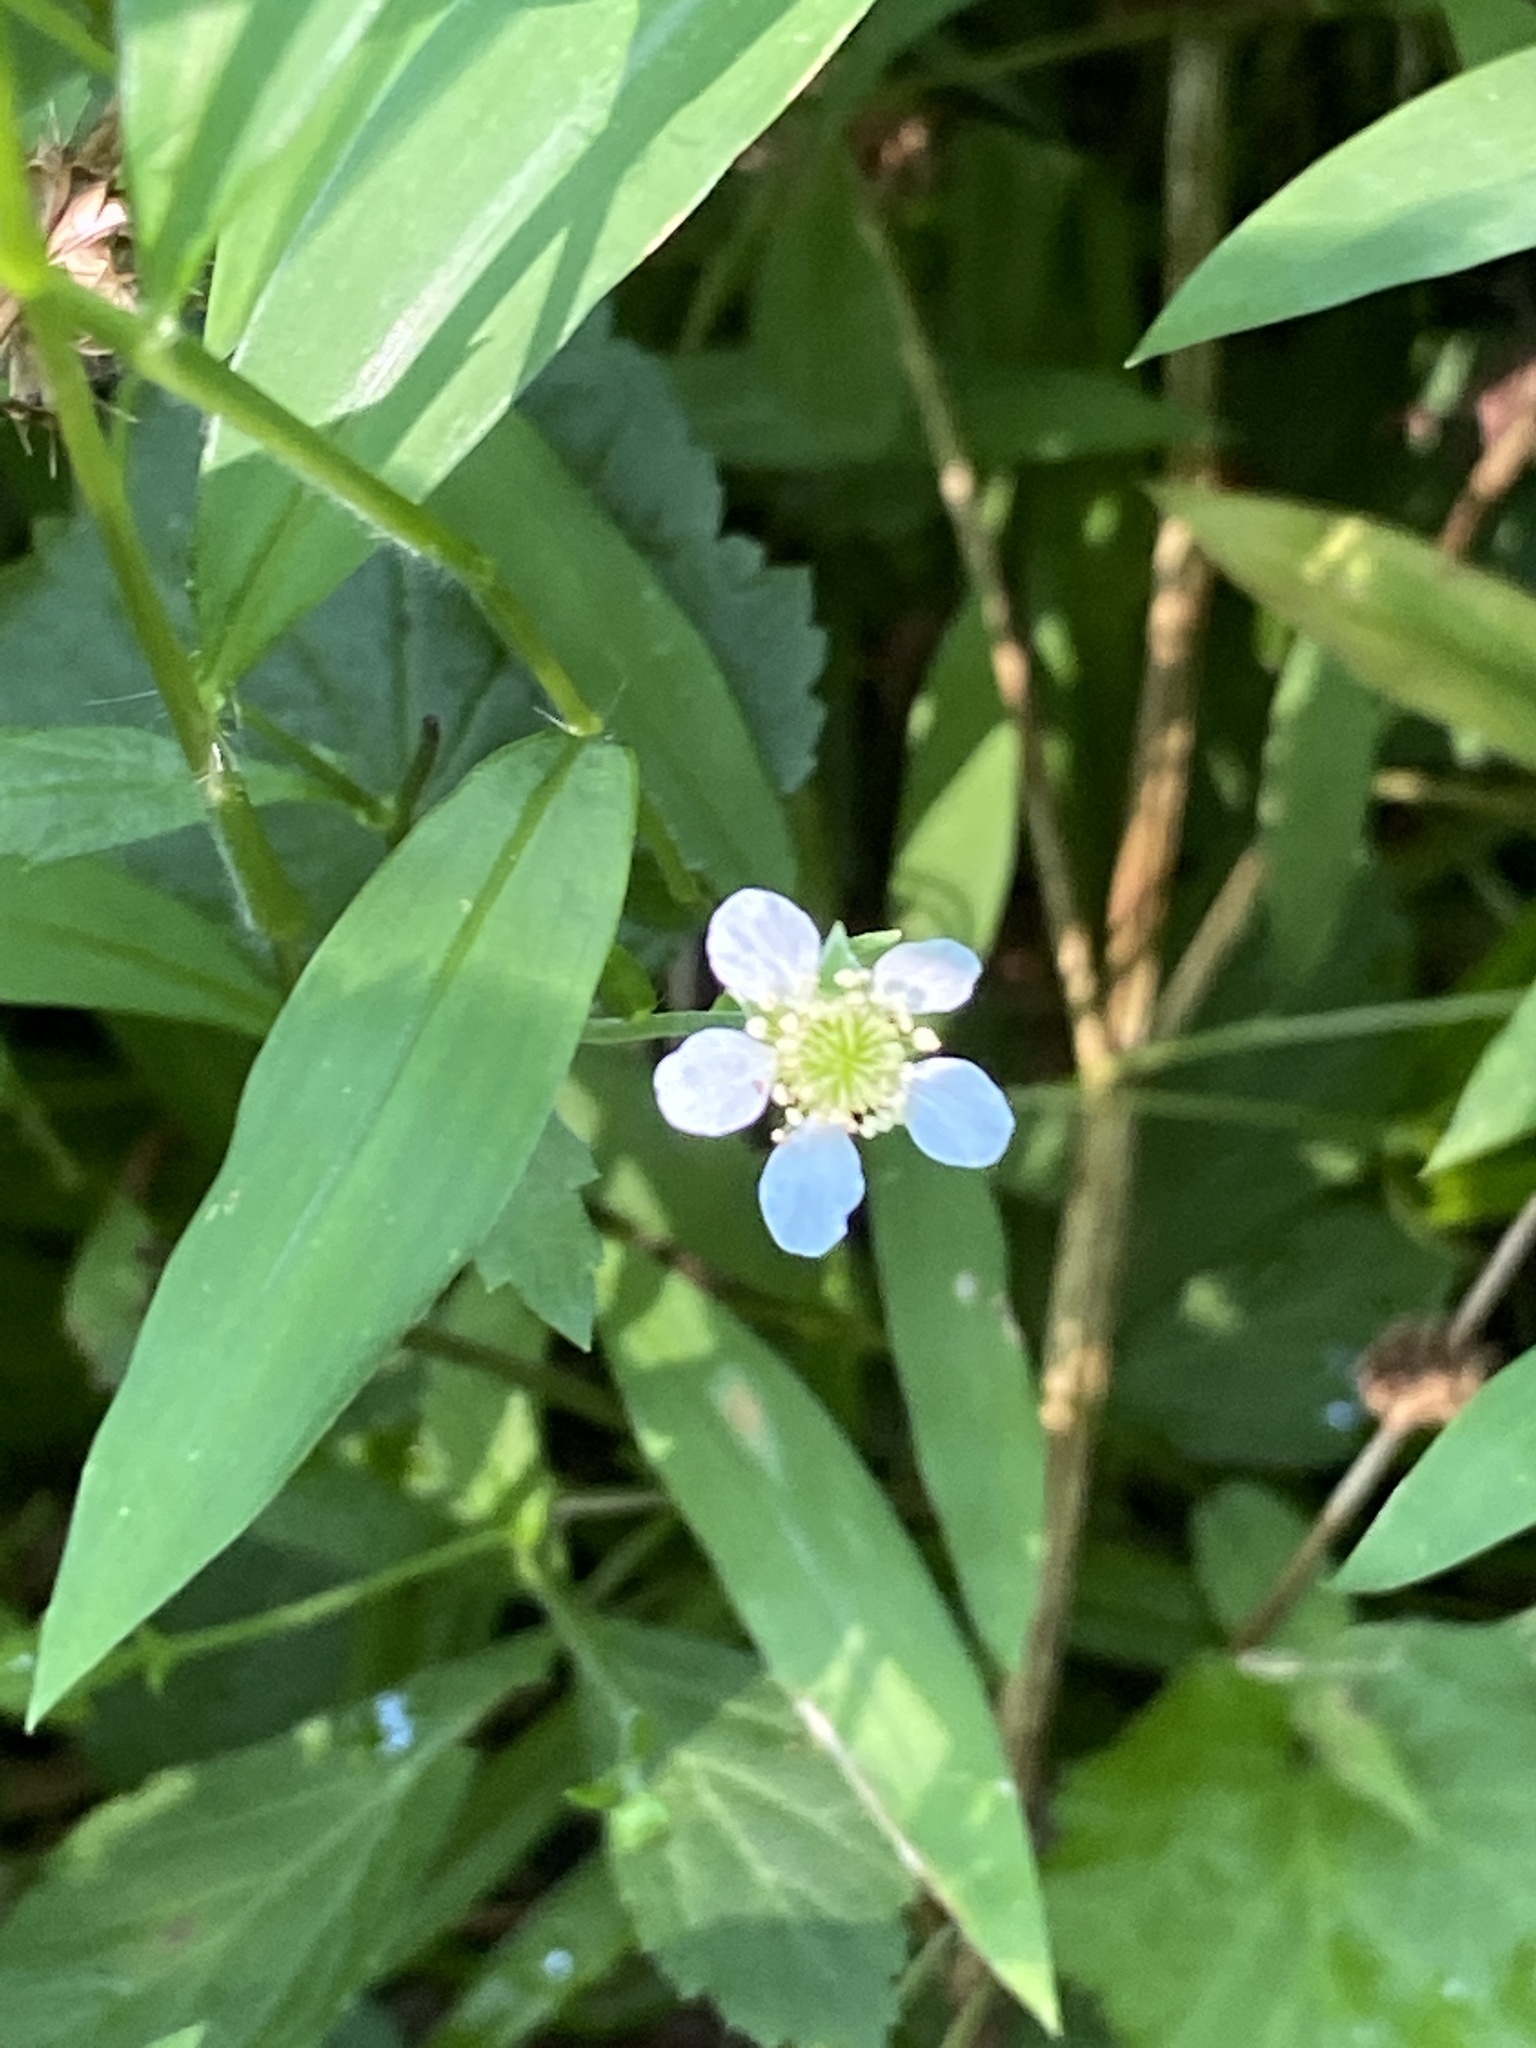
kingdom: Plantae
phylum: Tracheophyta
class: Magnoliopsida
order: Rosales
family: Rosaceae
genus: Geum
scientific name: Geum canadense
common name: White avens
